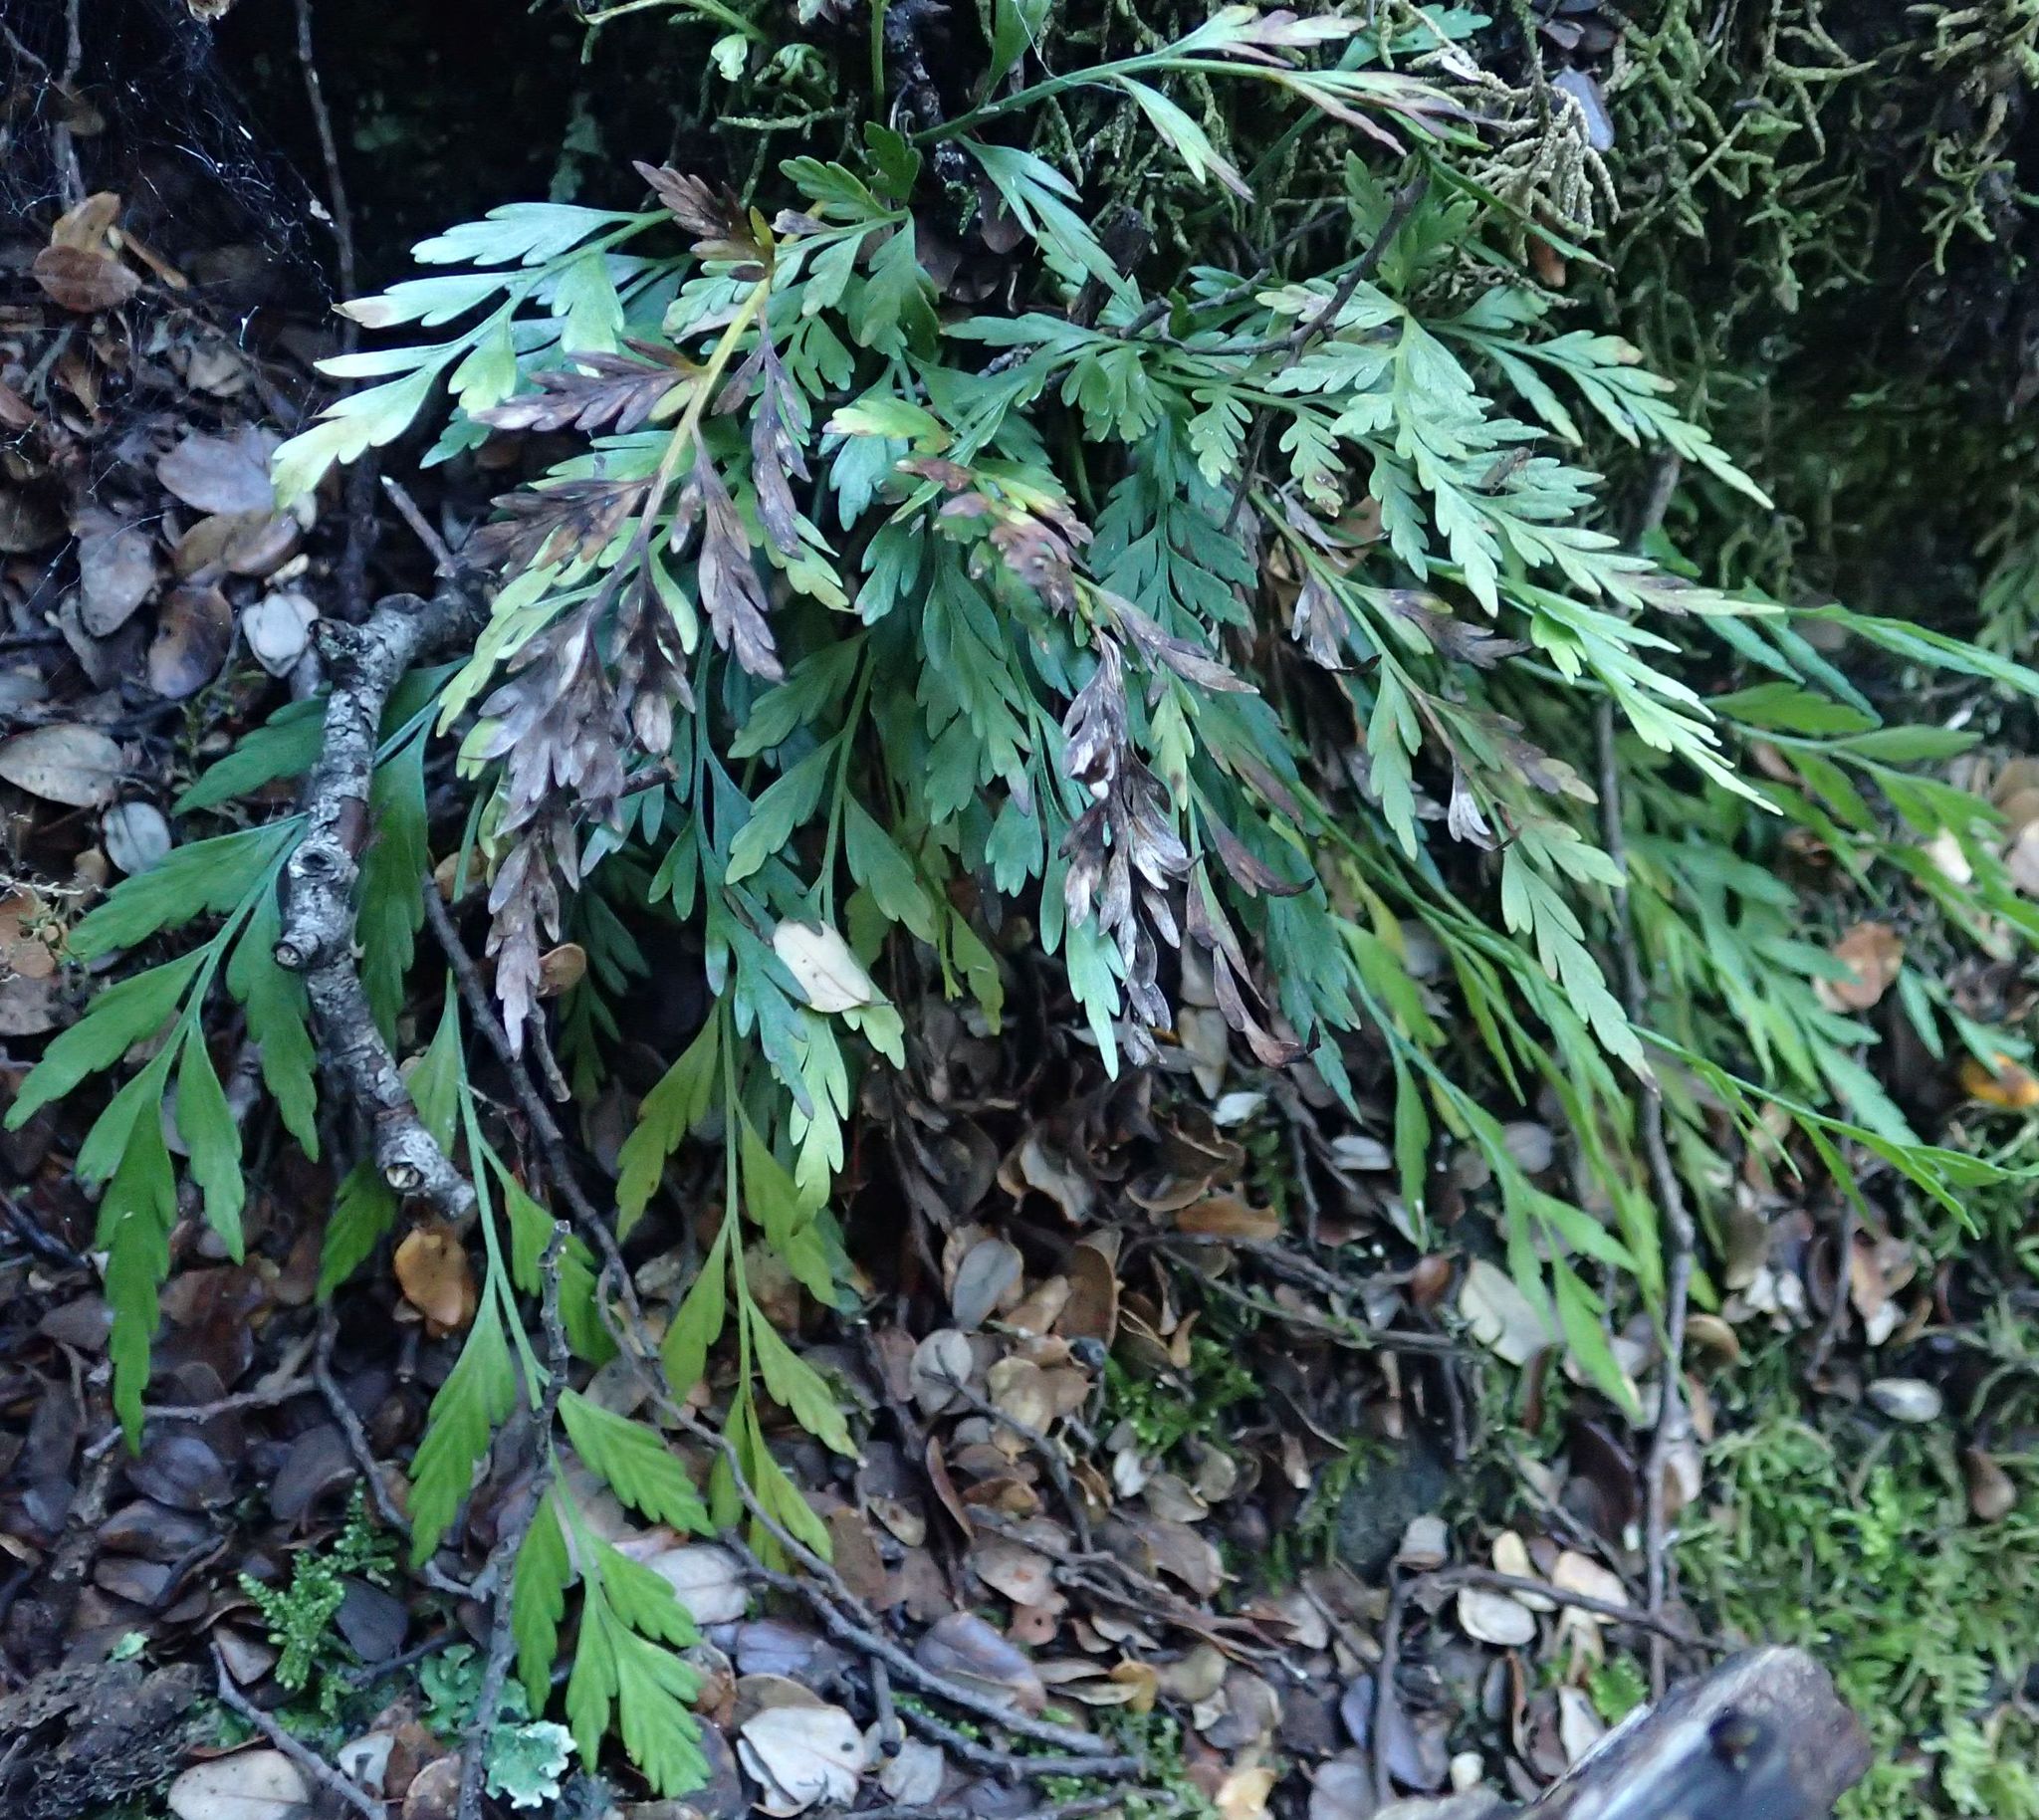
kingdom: Plantae
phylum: Tracheophyta
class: Polypodiopsida
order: Polypodiales
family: Aspleniaceae
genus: Asplenium
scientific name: Asplenium flaccidum
